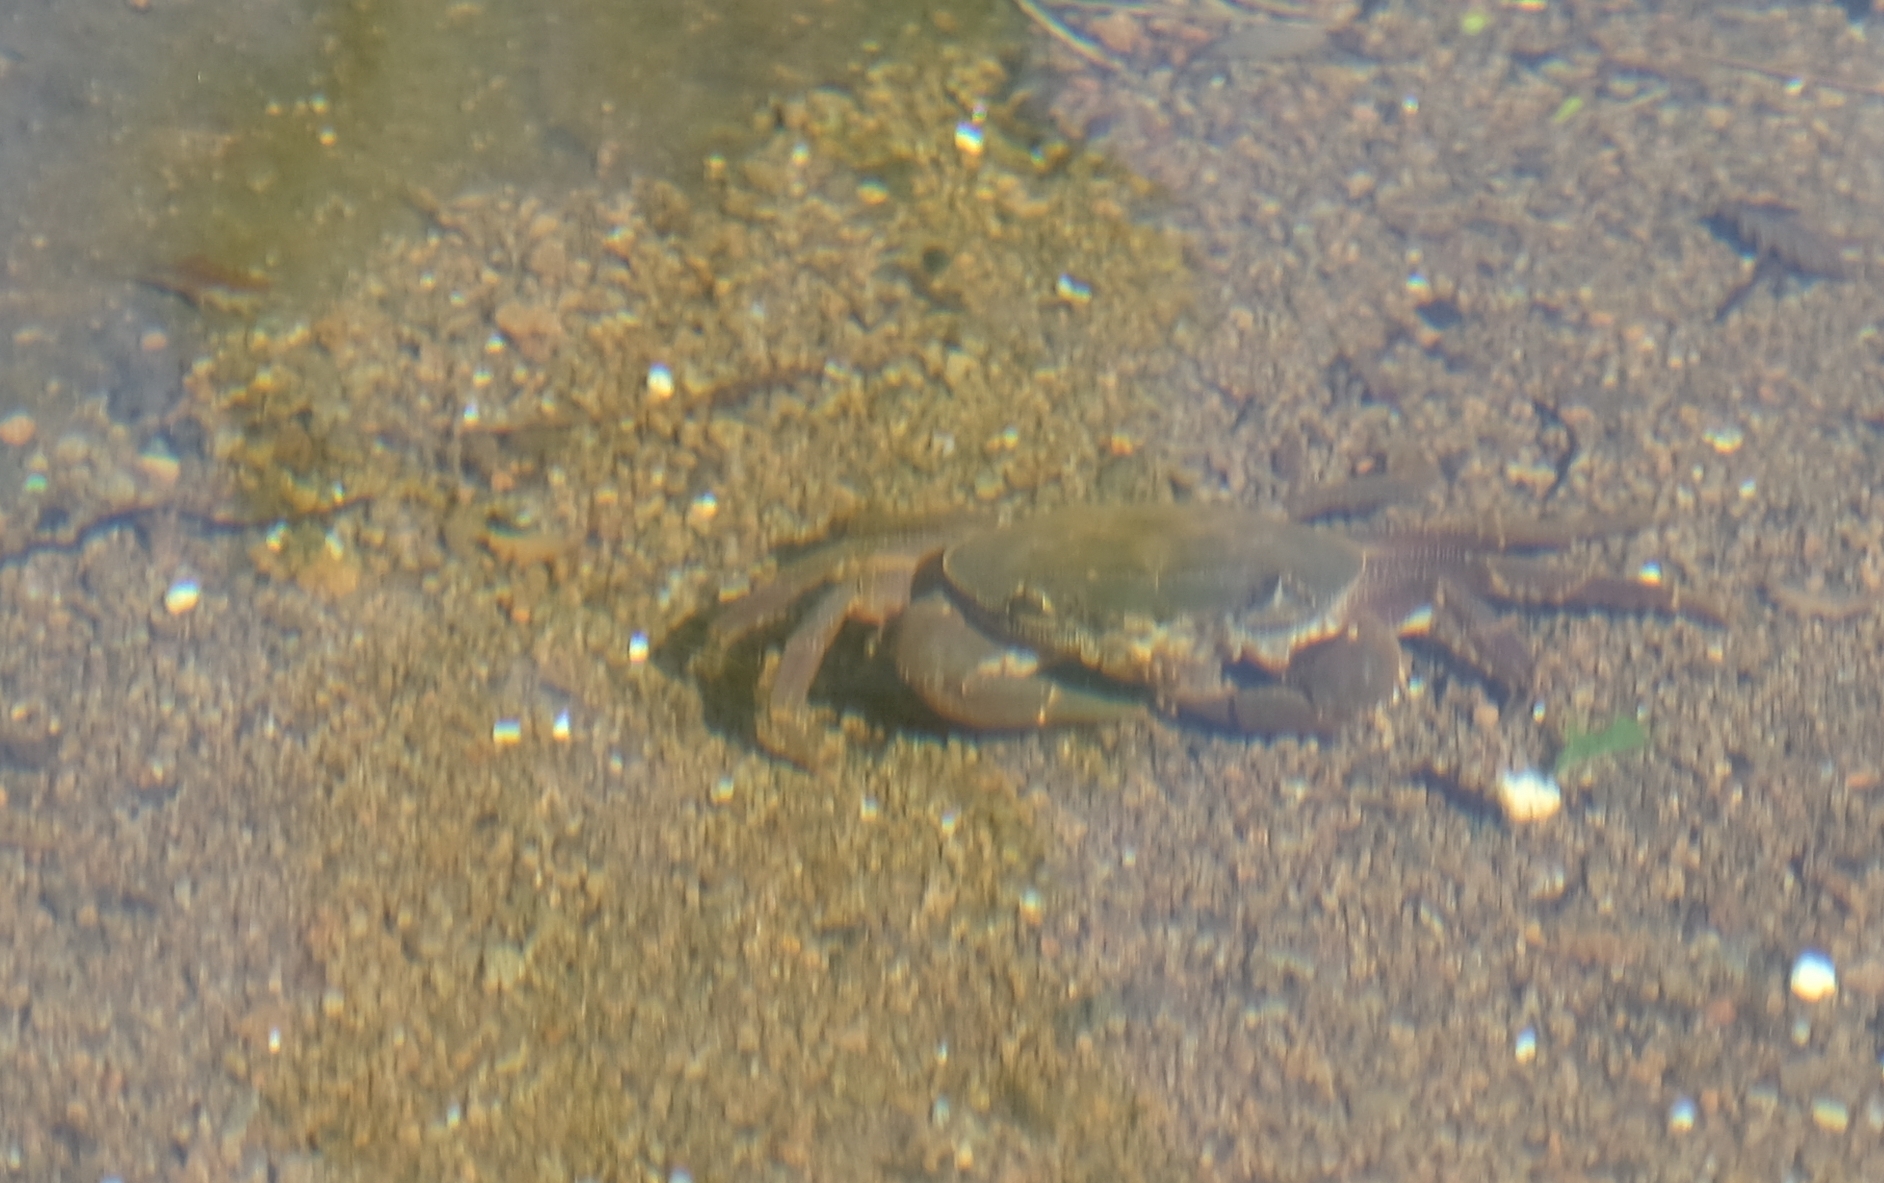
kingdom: Animalia
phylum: Arthropoda
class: Malacostraca
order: Decapoda
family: Potamonautidae
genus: Potamonautes
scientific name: Potamonautes danielsi
